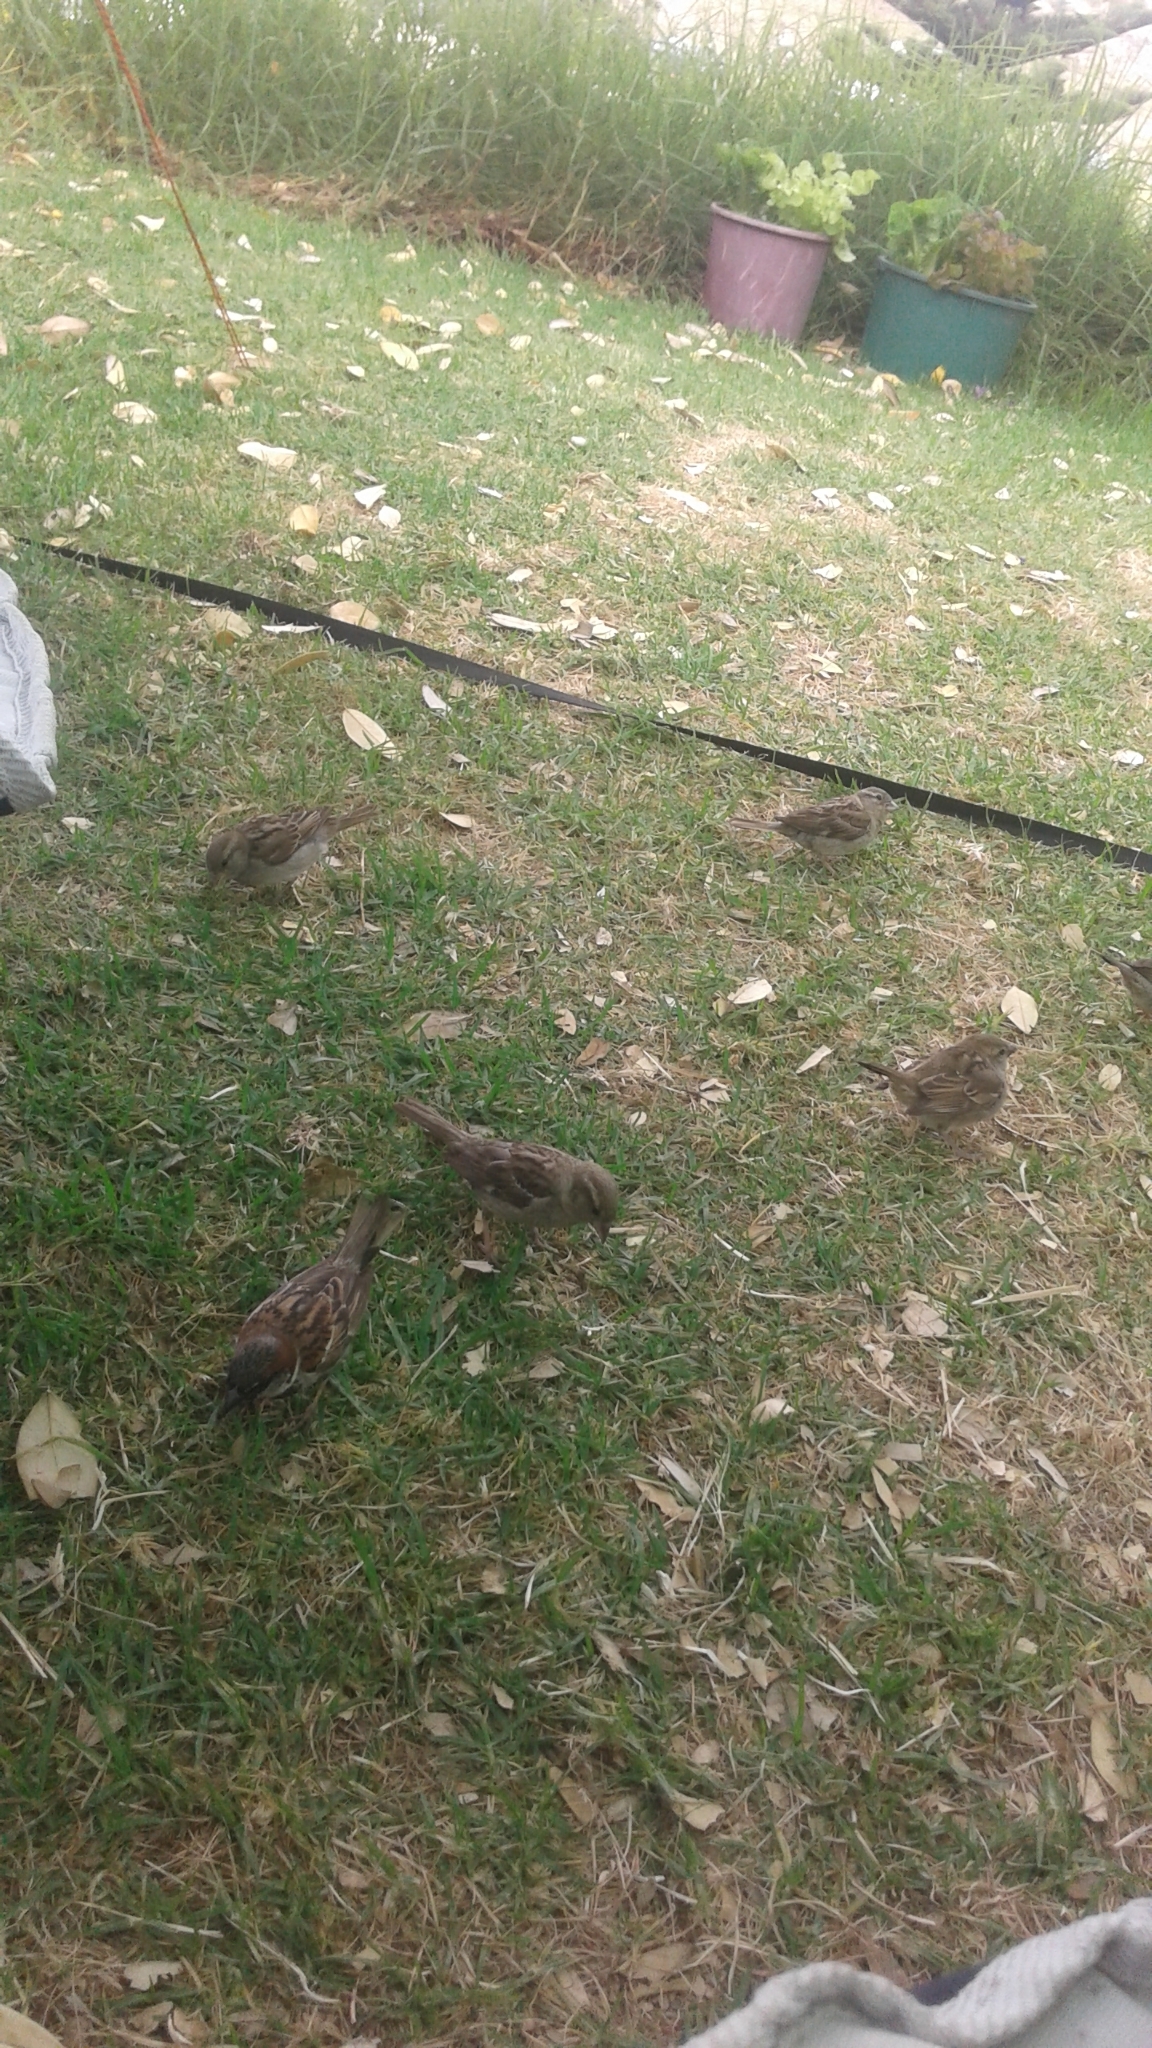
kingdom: Animalia
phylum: Chordata
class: Aves
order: Passeriformes
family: Passeridae
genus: Passer
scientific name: Passer domesticus
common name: House sparrow
